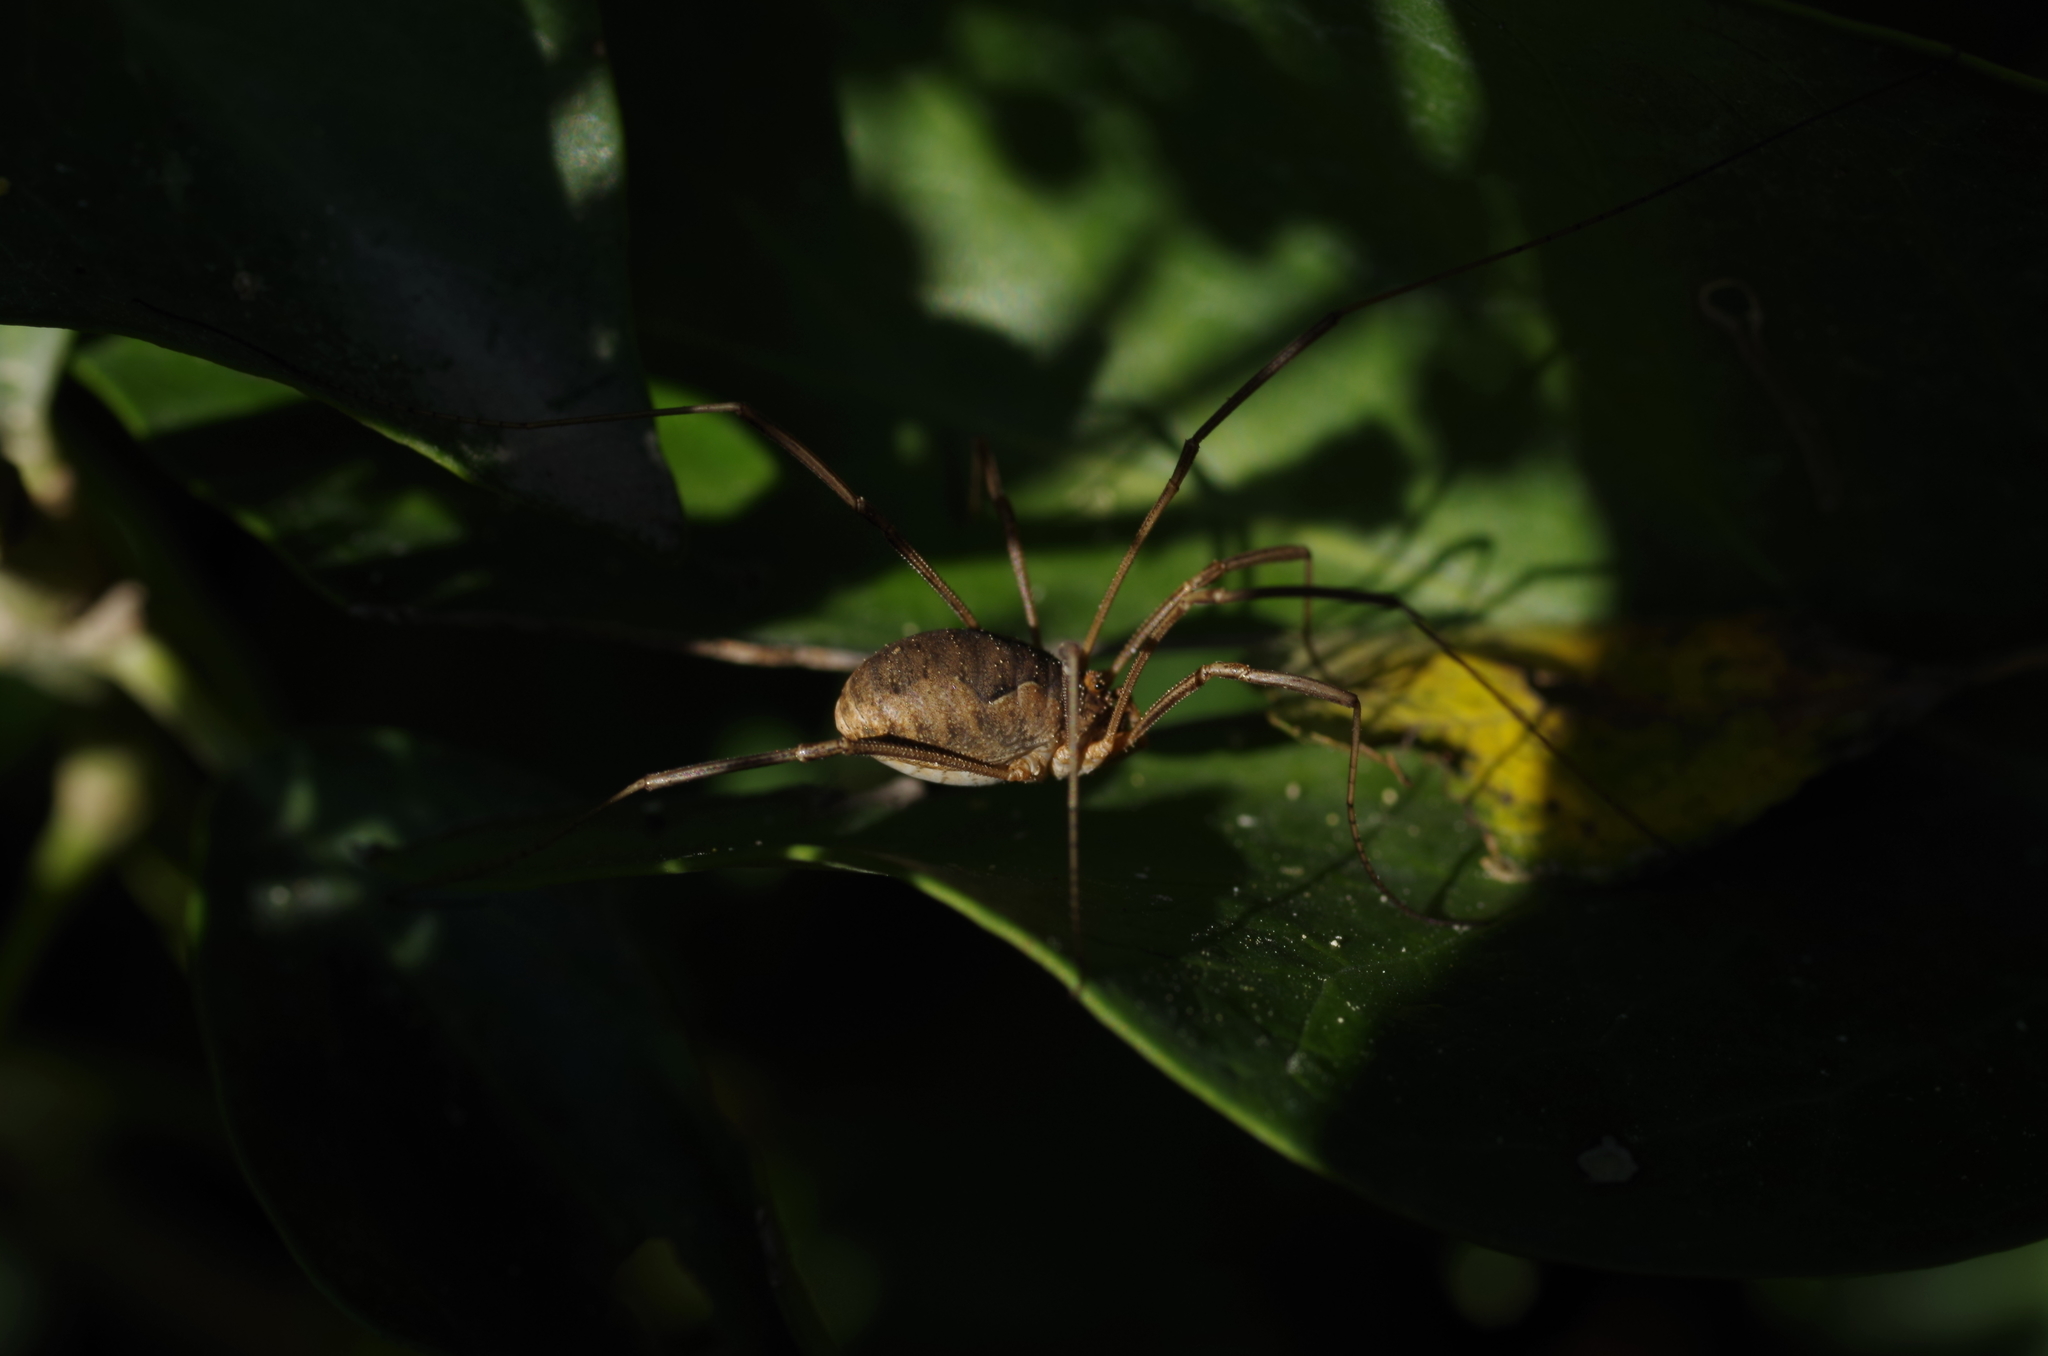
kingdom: Animalia
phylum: Arthropoda
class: Arachnida
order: Opiliones
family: Phalangiidae
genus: Phalangium
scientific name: Phalangium opilio
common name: Daddy longleg
